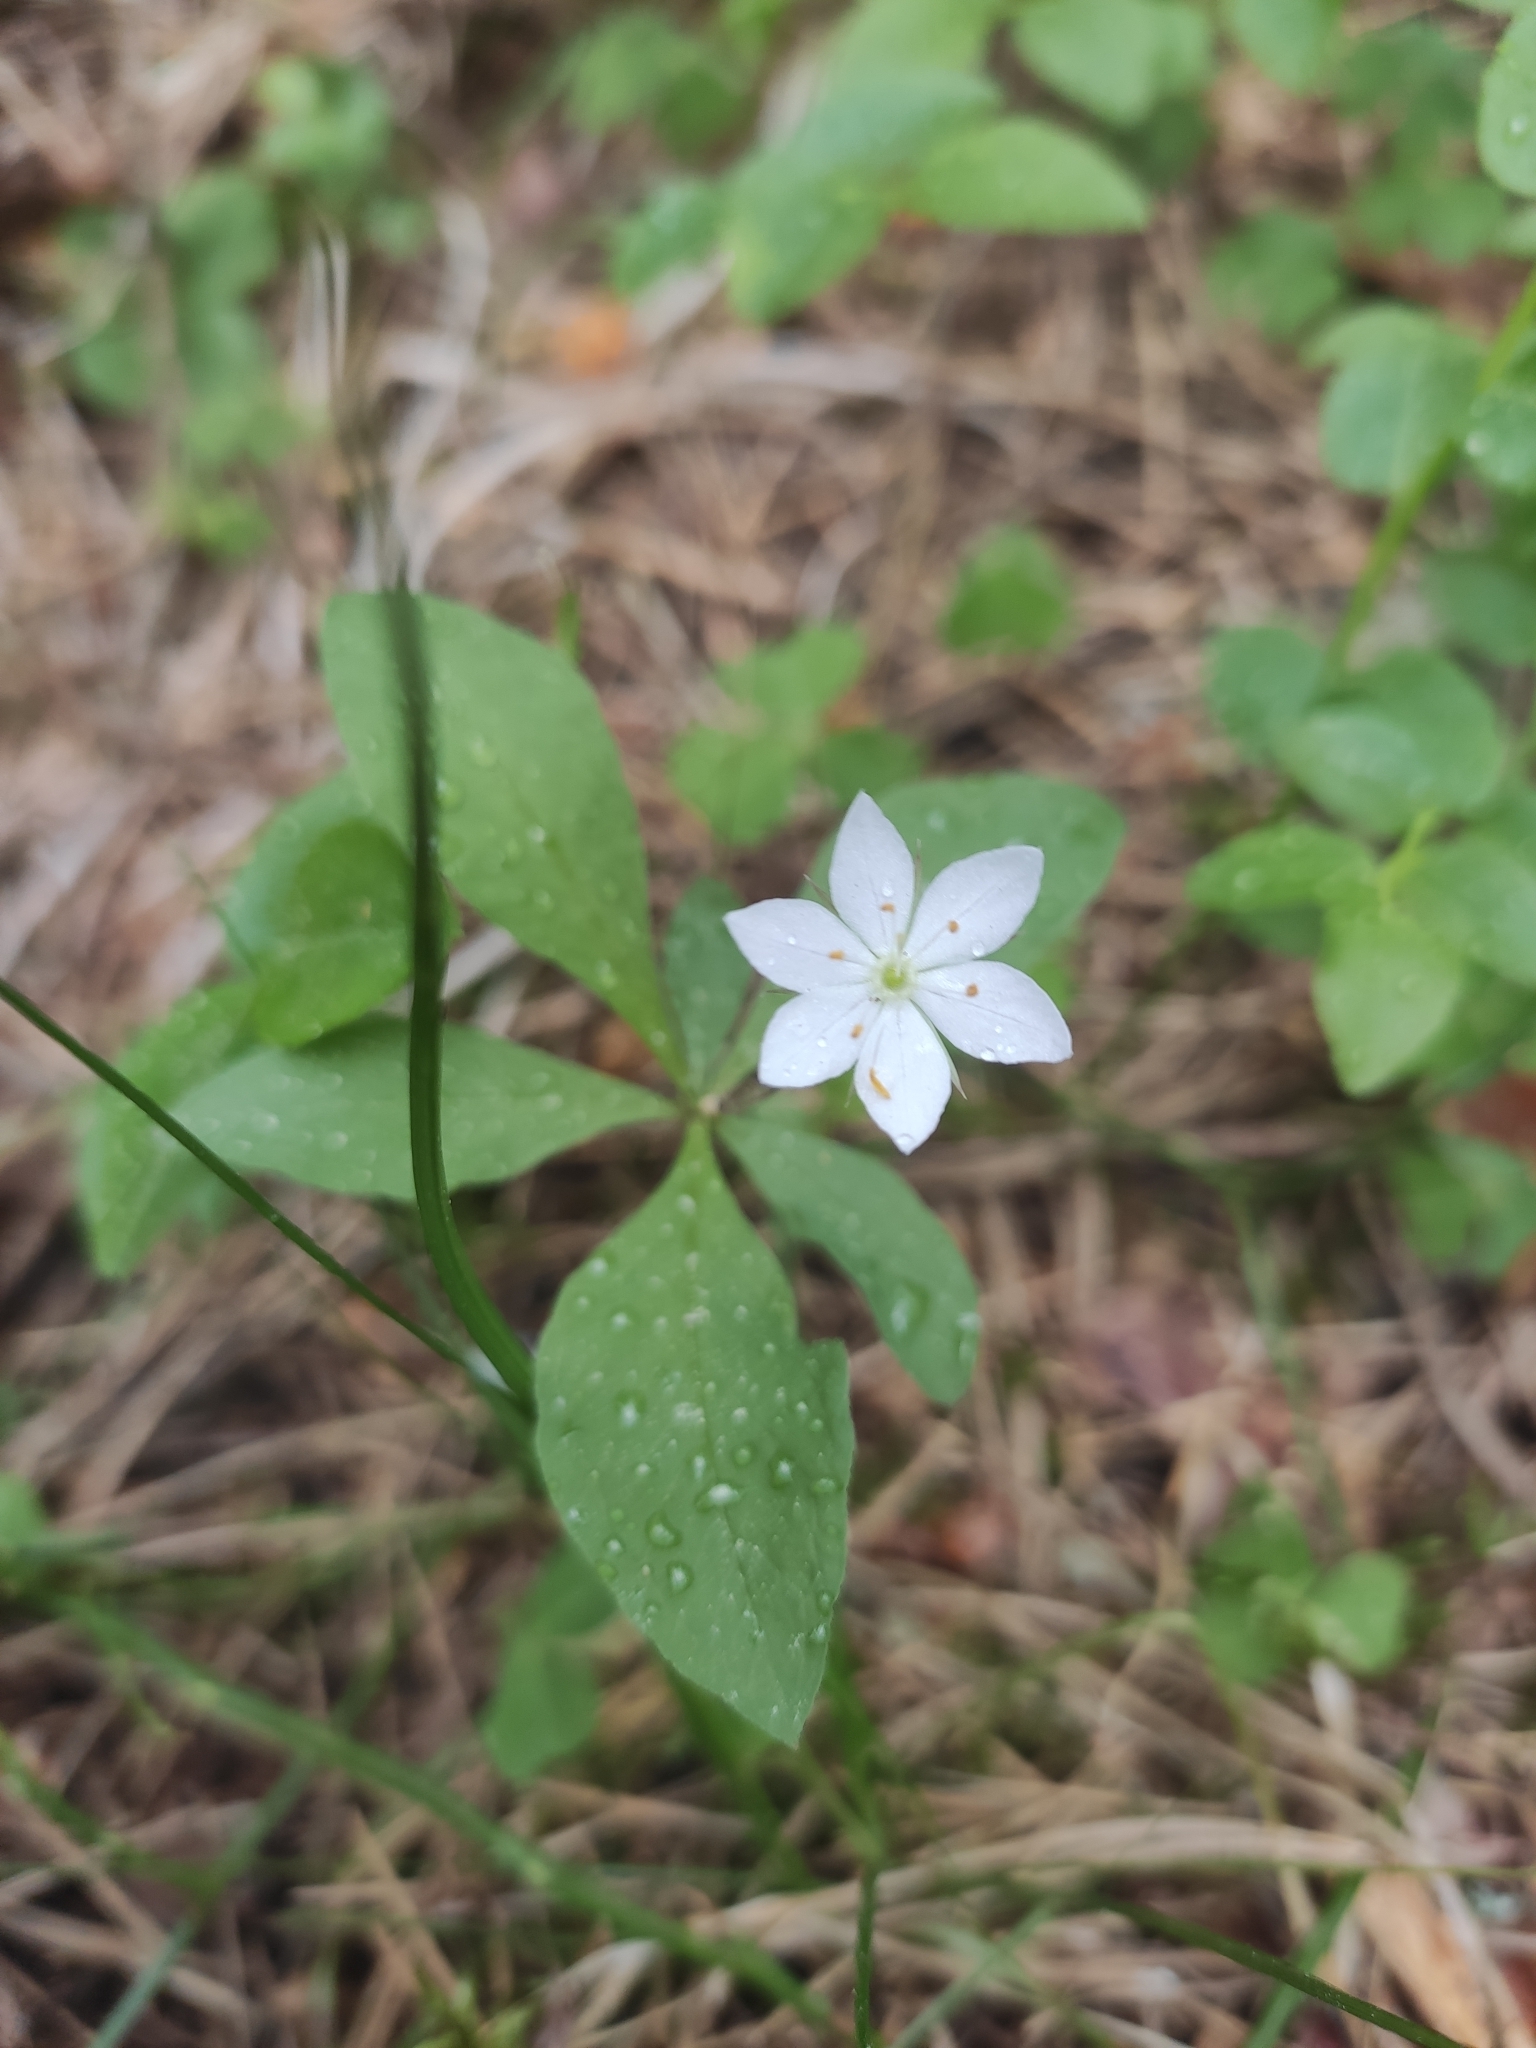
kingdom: Plantae
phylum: Tracheophyta
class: Magnoliopsida
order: Ericales
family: Primulaceae
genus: Lysimachia
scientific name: Lysimachia europaea
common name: Arctic starflower
